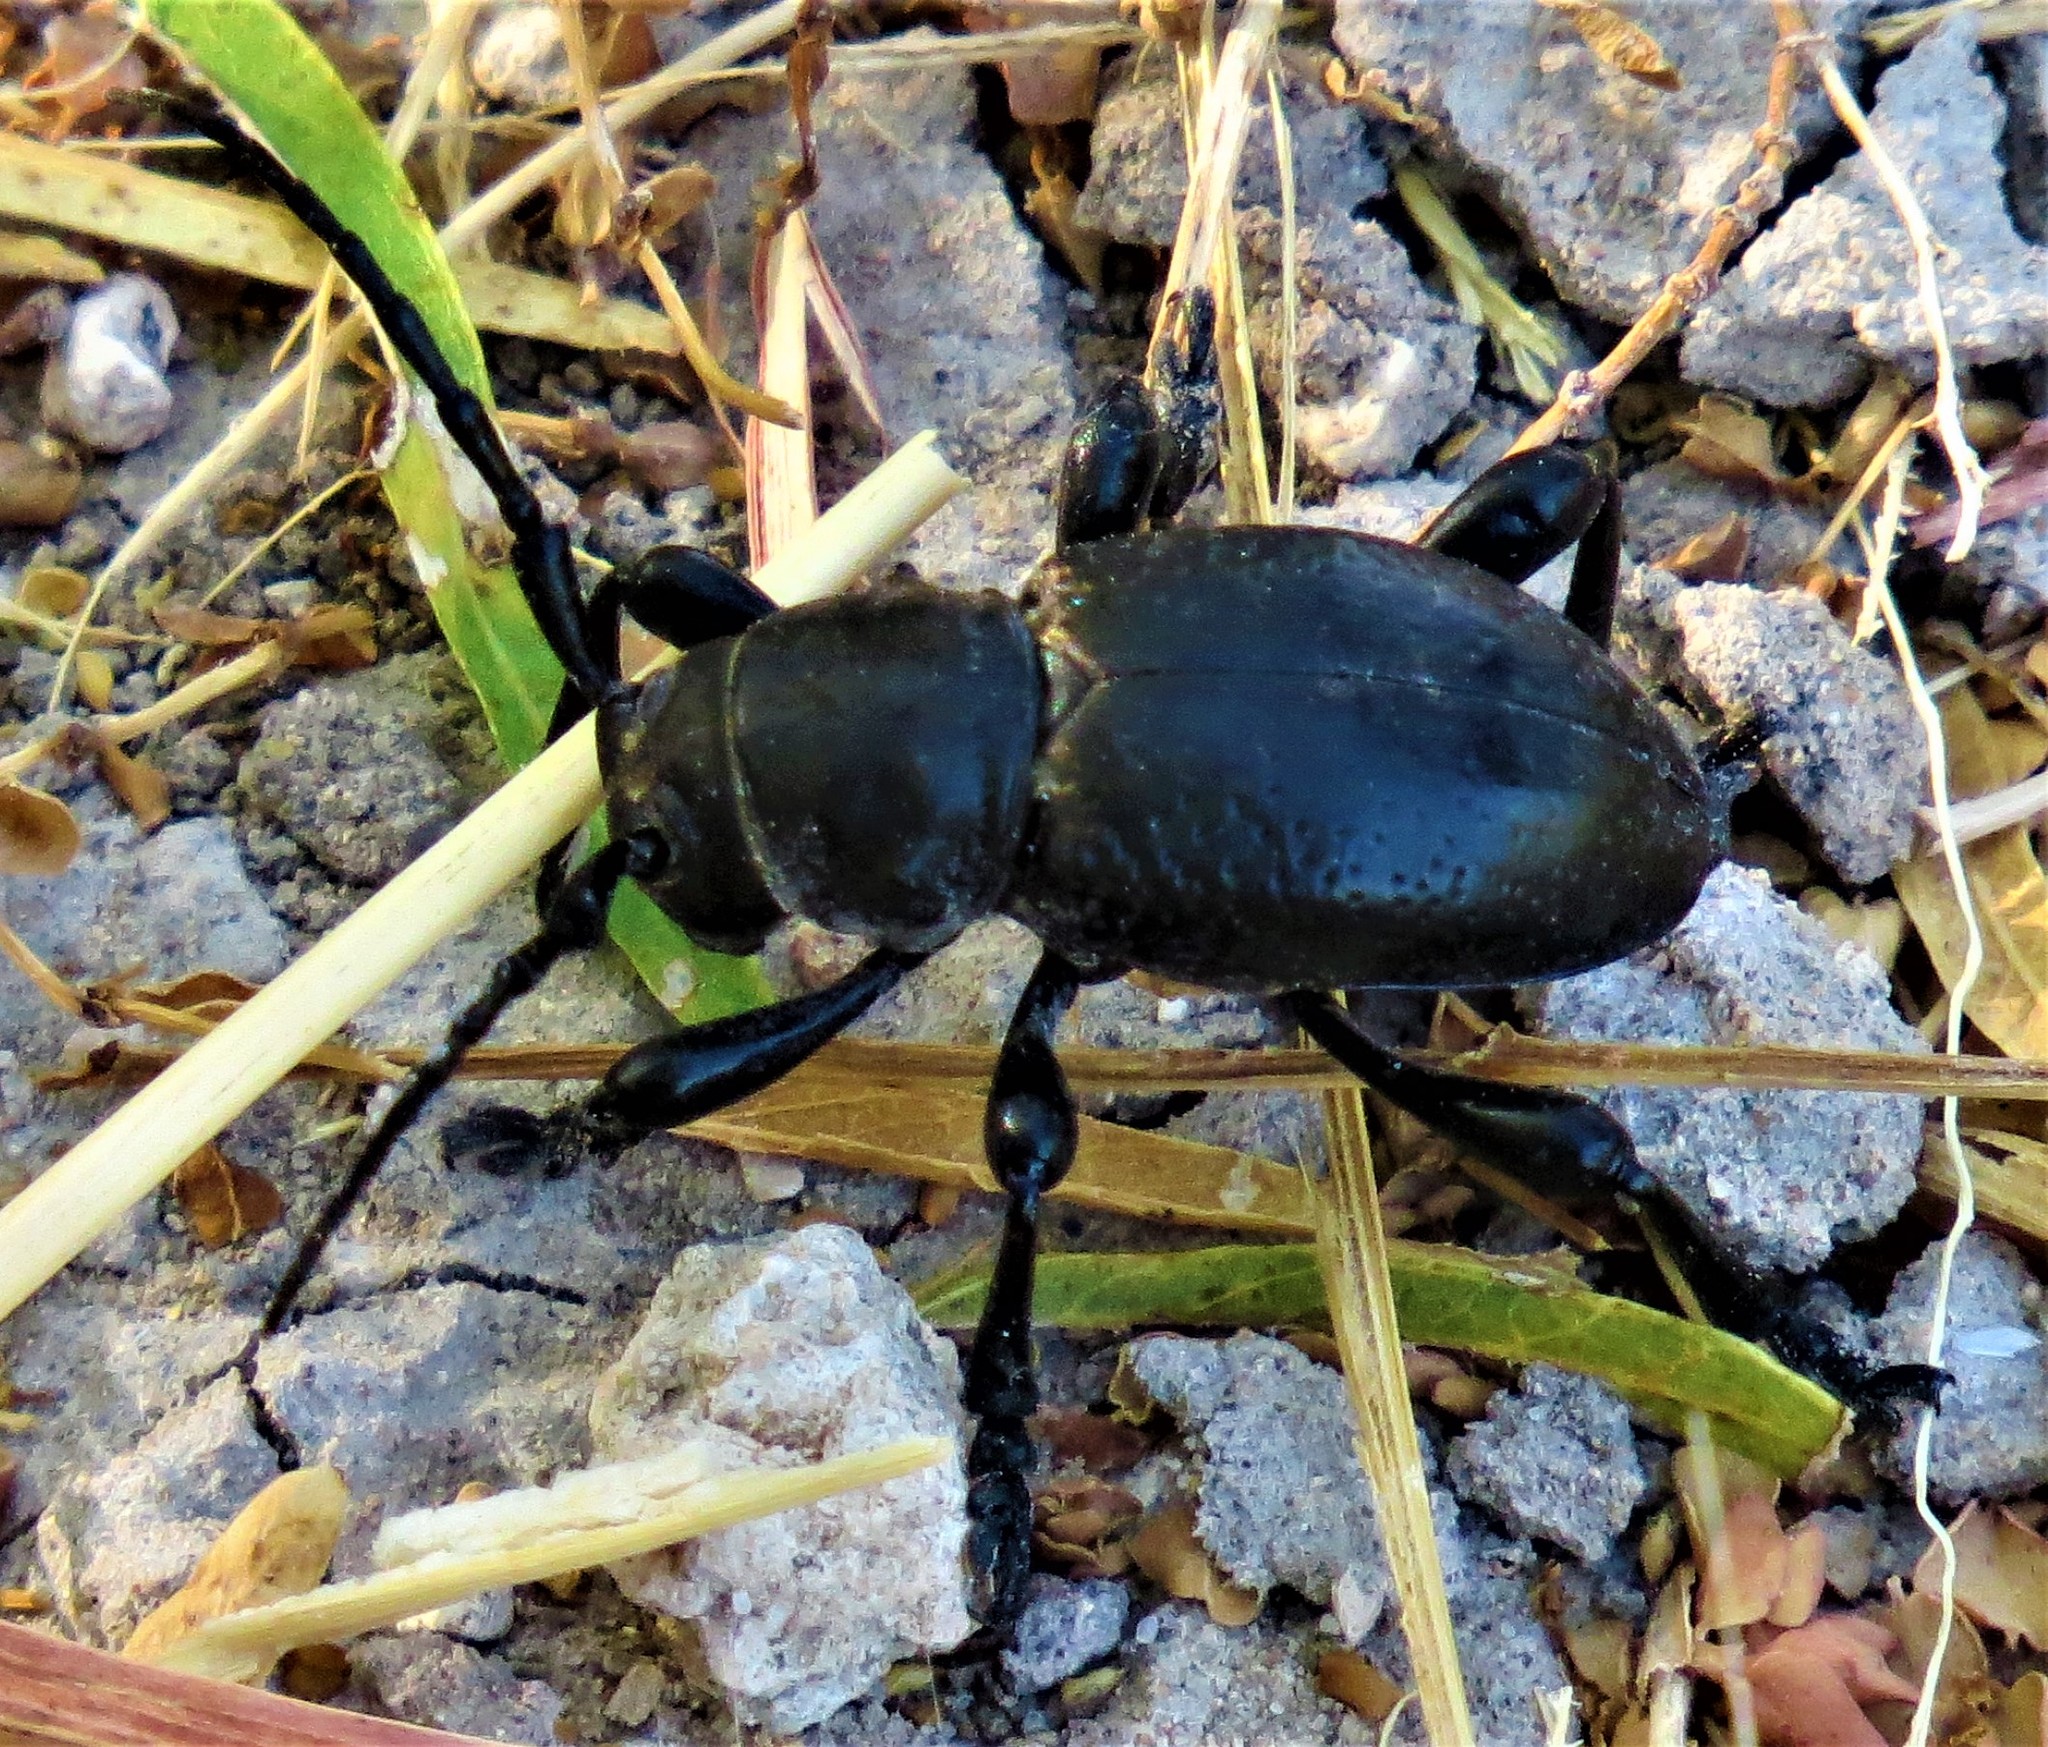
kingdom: Animalia
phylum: Arthropoda
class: Insecta
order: Coleoptera
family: Cerambycidae
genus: Moneilema
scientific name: Moneilema armatum
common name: Long-horned beetle
